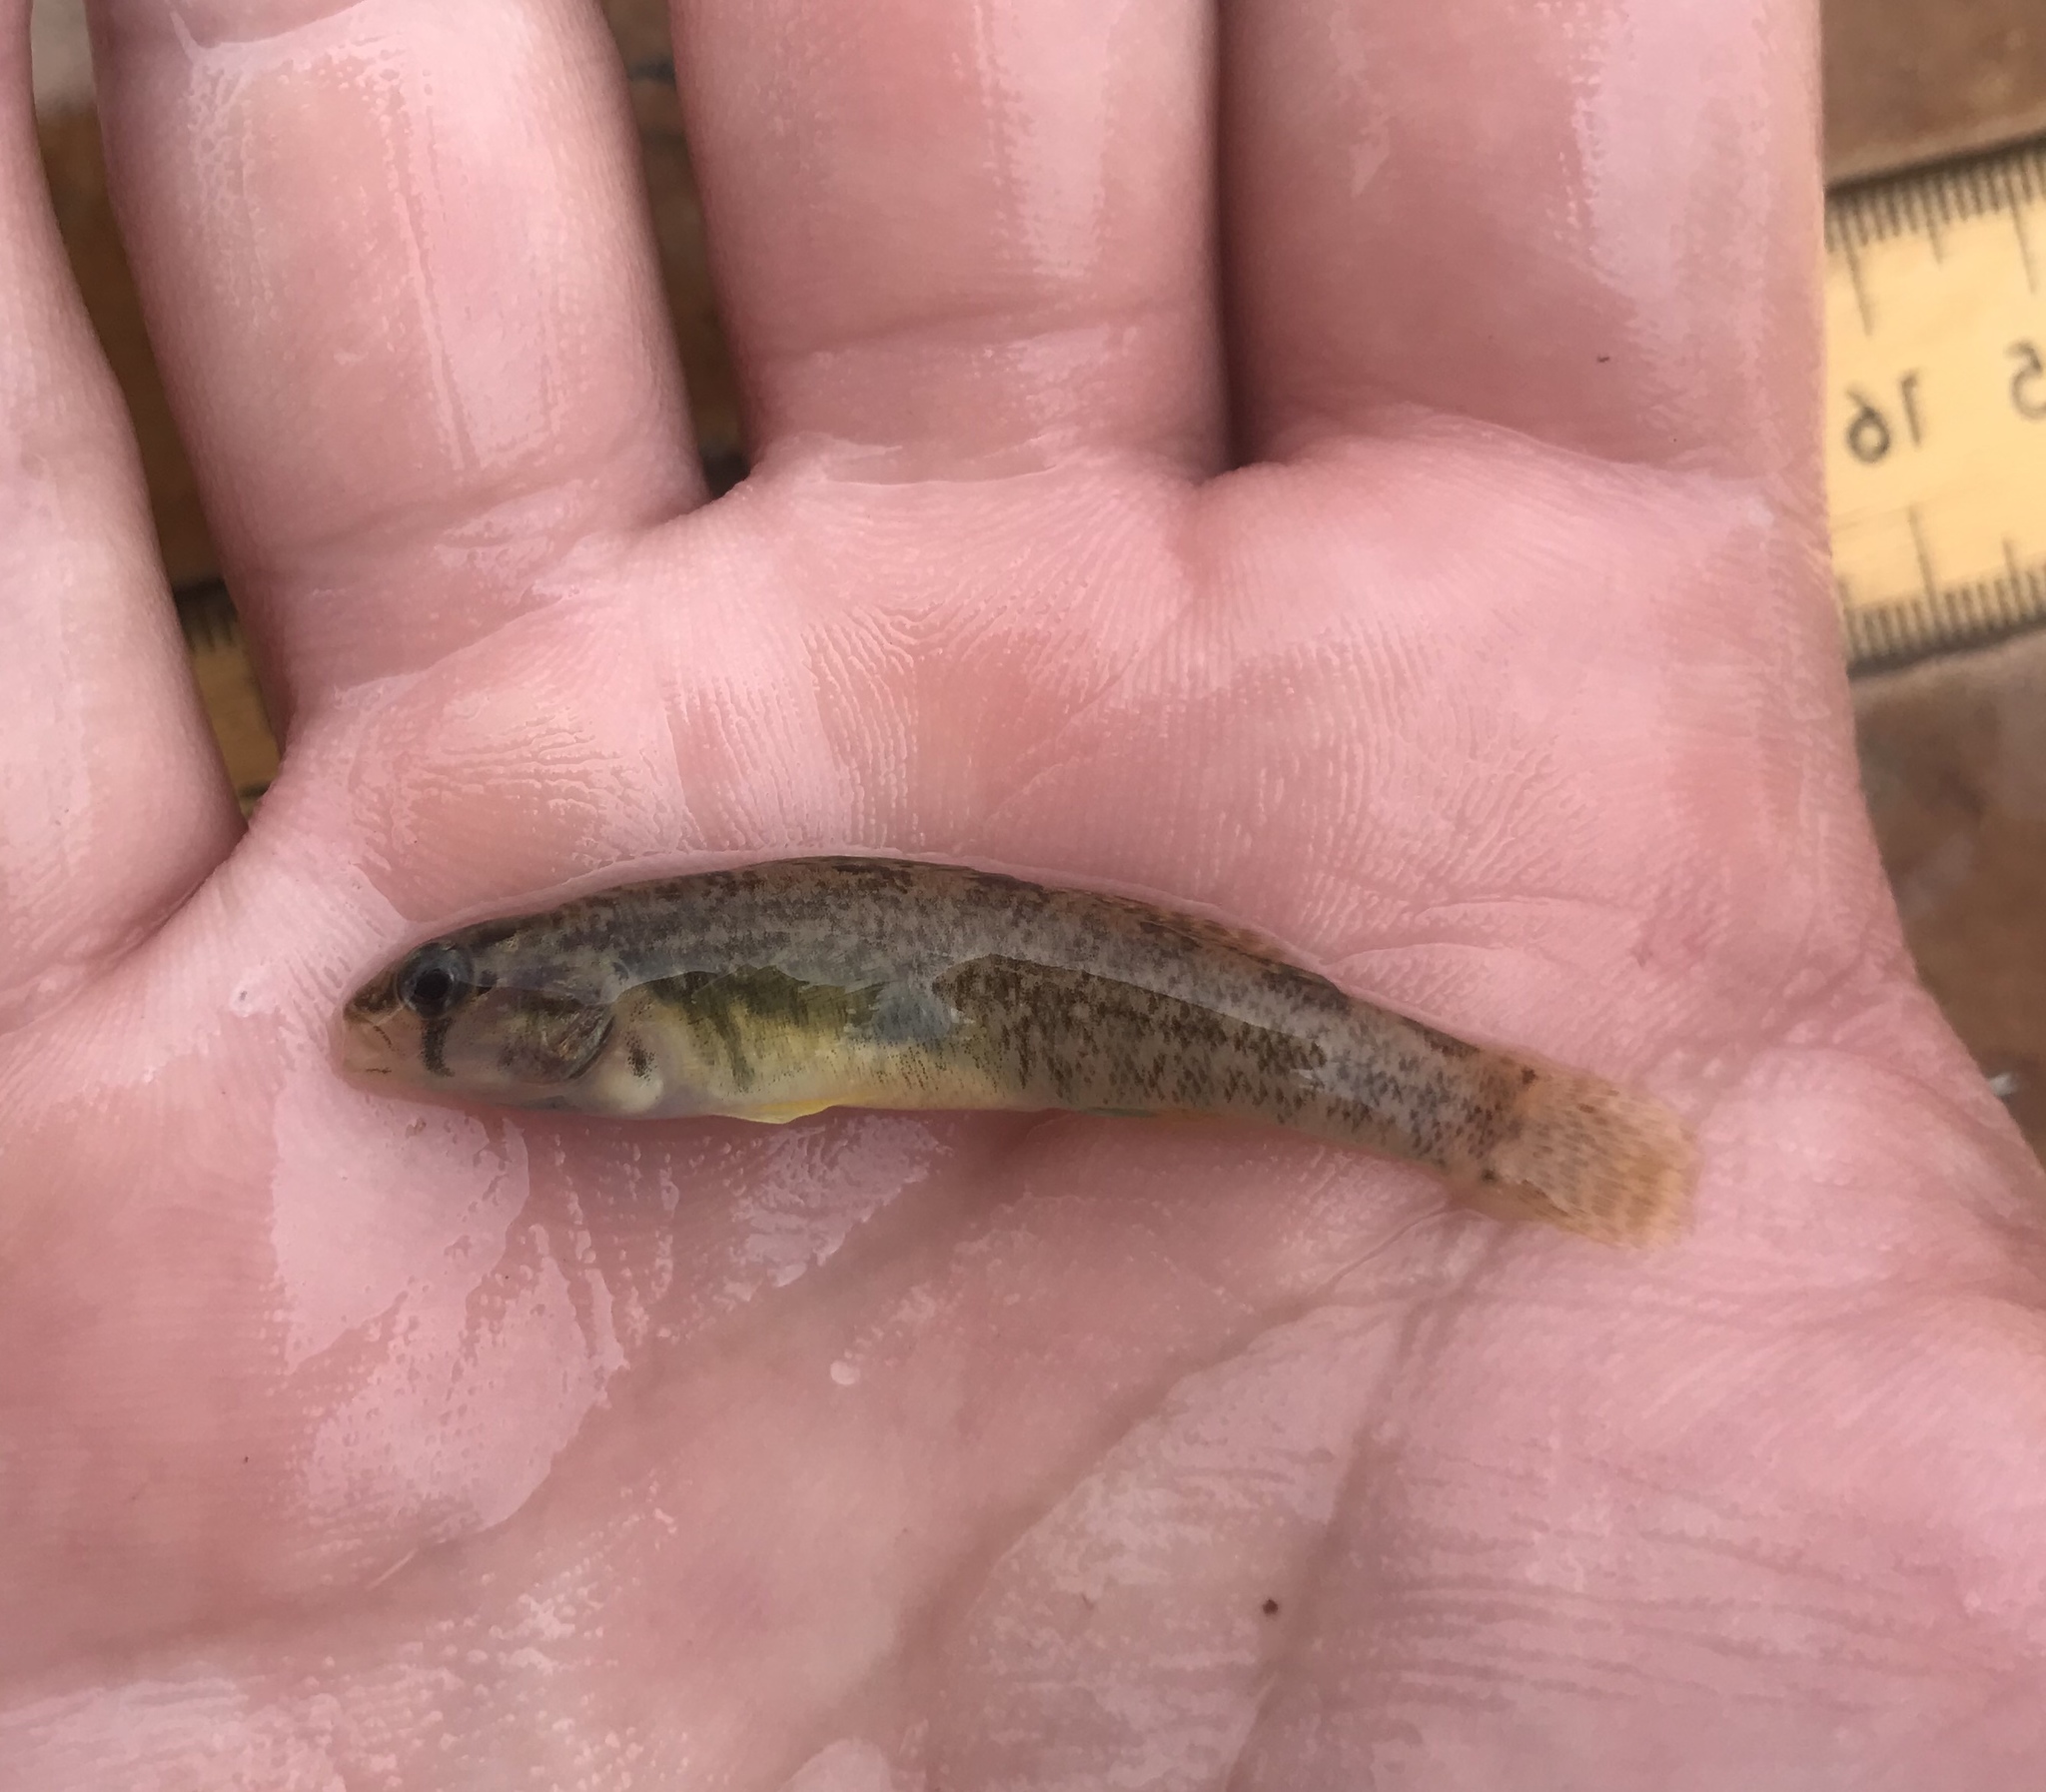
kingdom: Animalia
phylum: Chordata
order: Perciformes
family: Percidae
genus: Etheostoma
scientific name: Etheostoma lepidum
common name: Greenthroat darter
